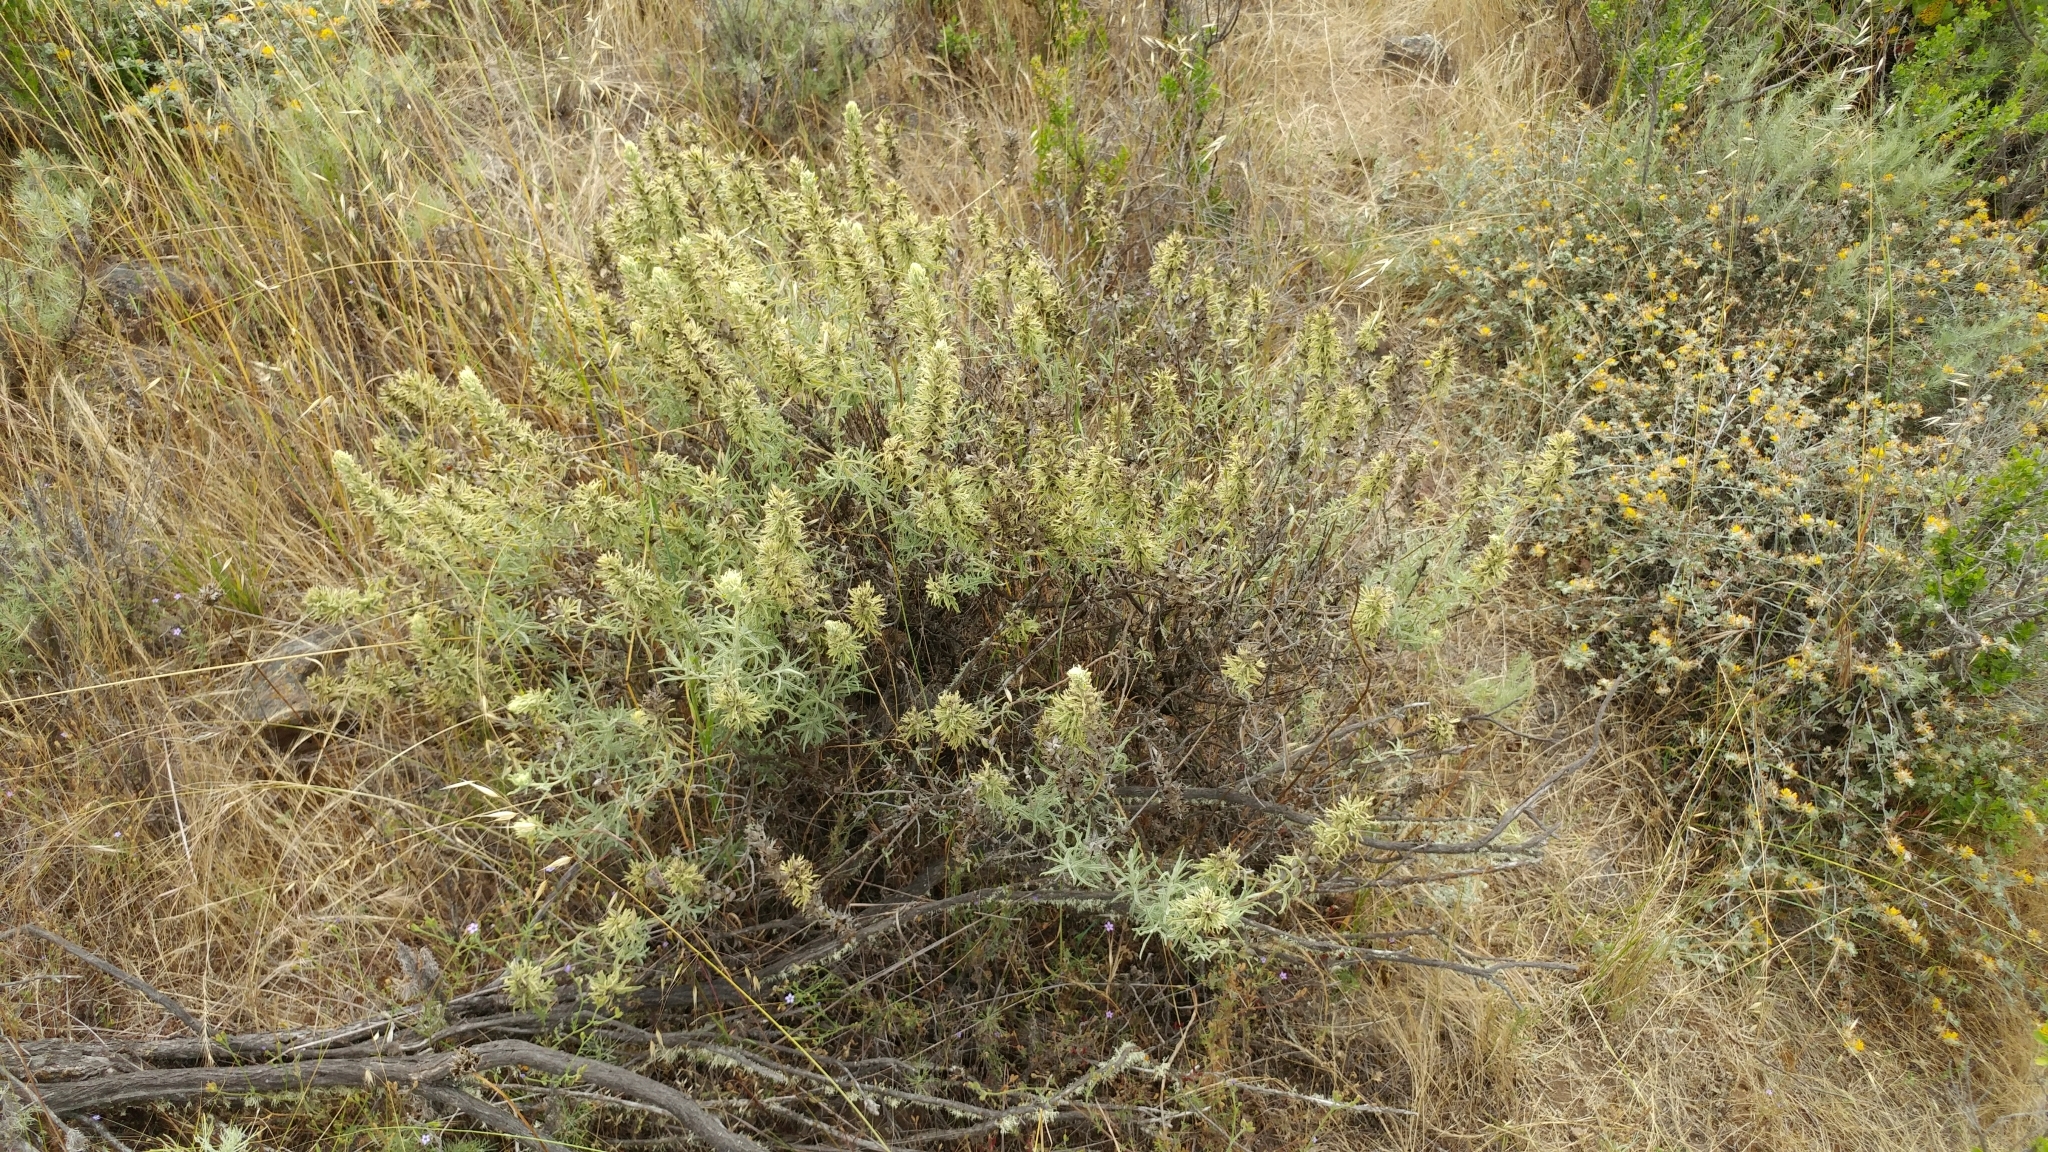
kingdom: Plantae
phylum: Tracheophyta
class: Magnoliopsida
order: Lamiales
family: Orobanchaceae
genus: Castilleja
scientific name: Castilleja grisea
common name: San clemente island indian paintbrush
